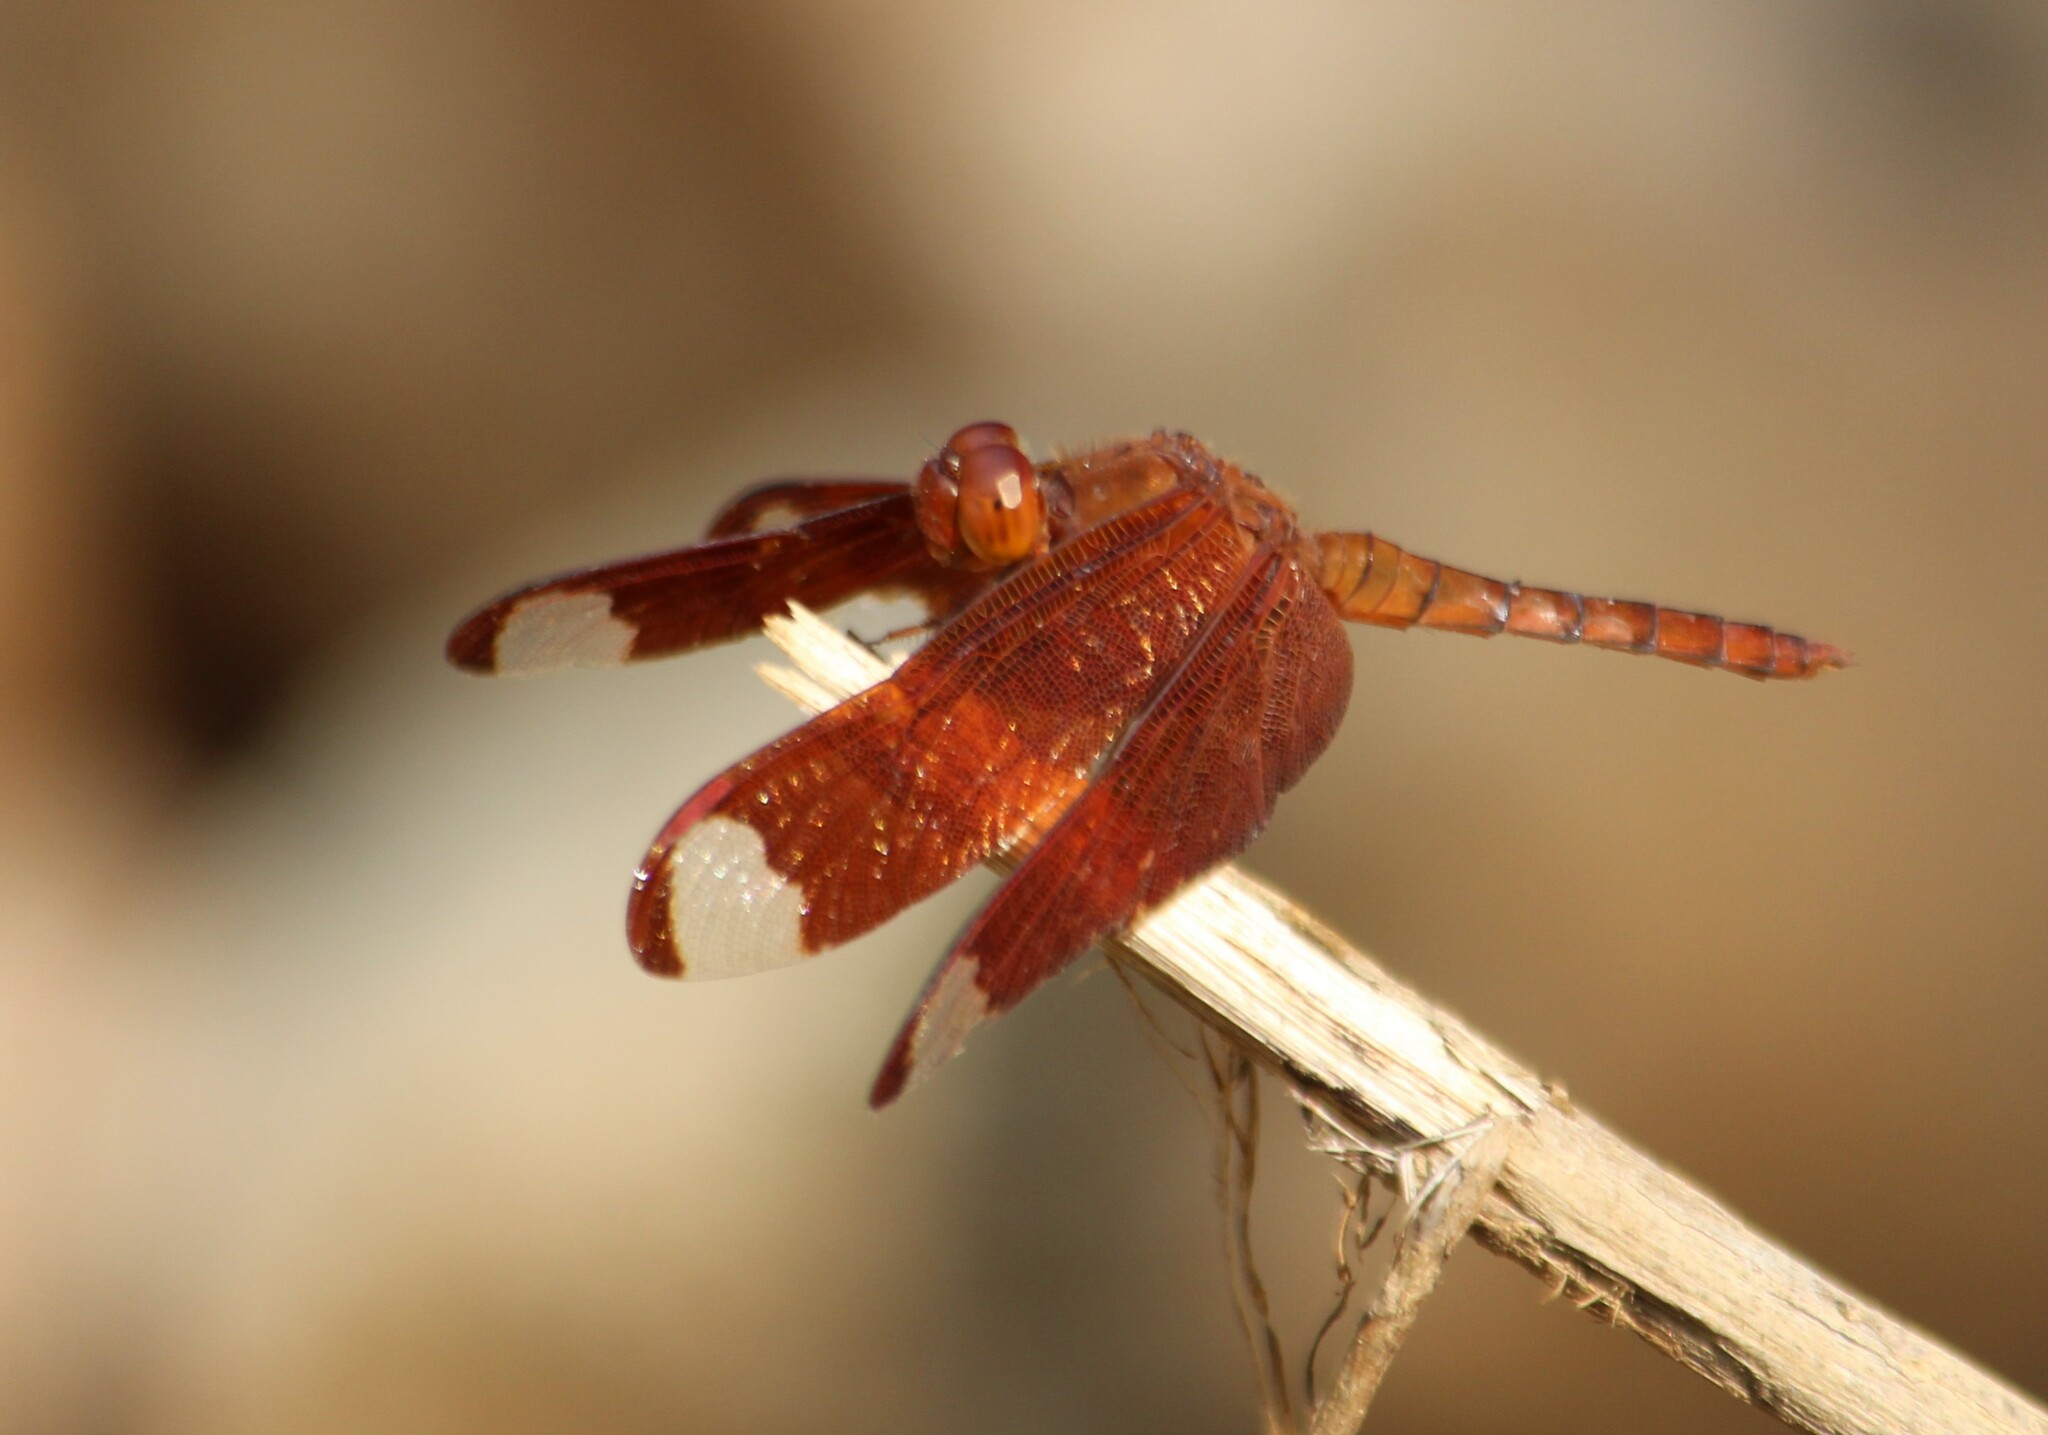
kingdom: Animalia
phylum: Arthropoda
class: Insecta
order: Odonata
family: Libellulidae
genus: Neurothemis
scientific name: Neurothemis fulvia
